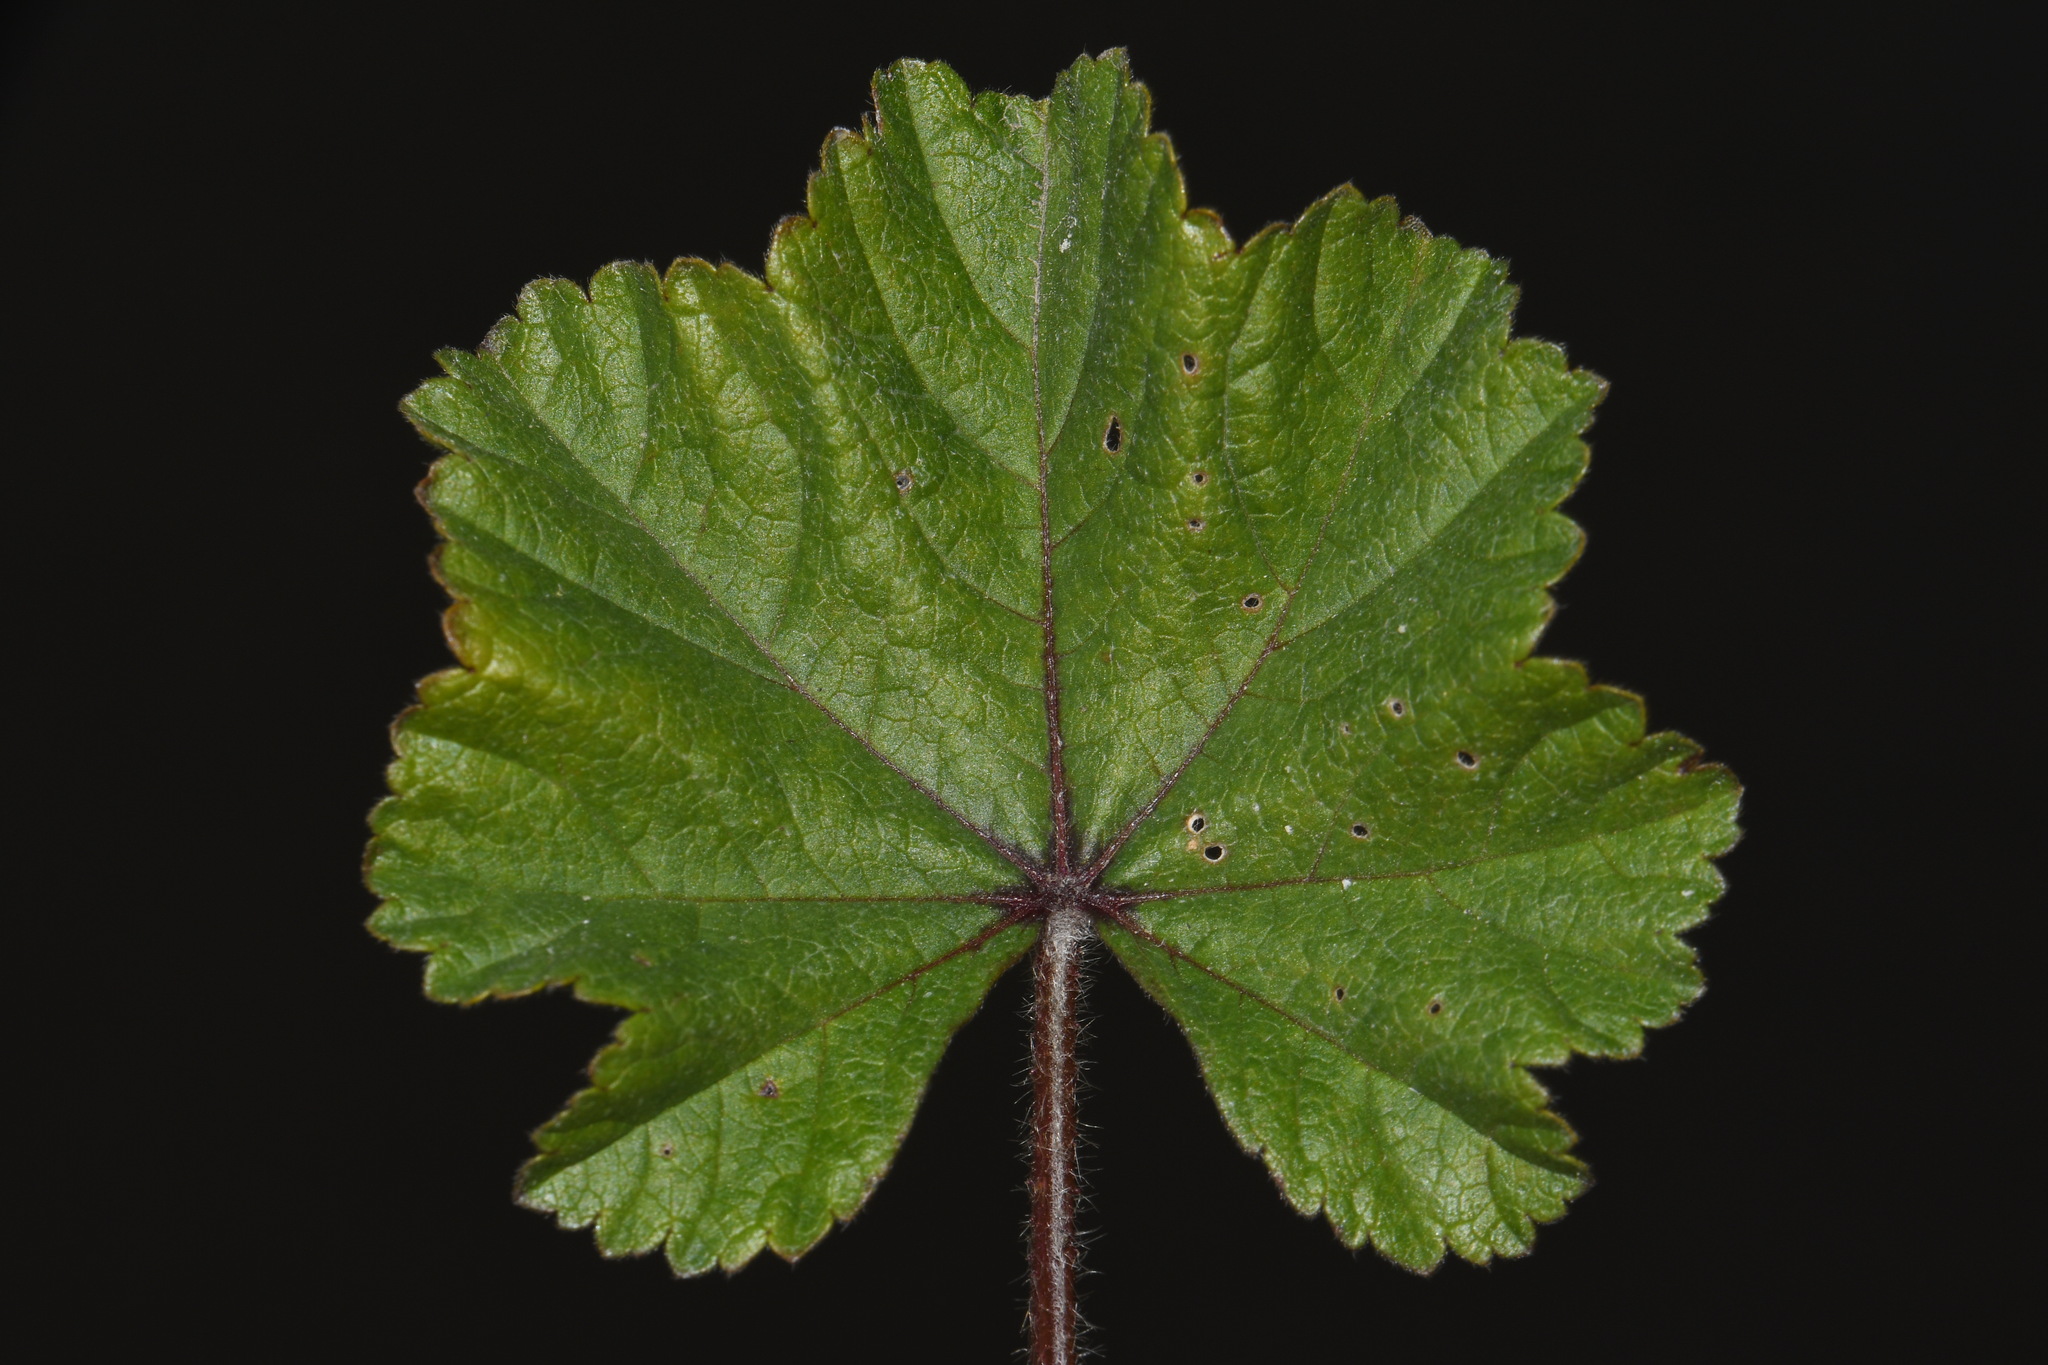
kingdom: Plantae
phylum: Tracheophyta
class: Magnoliopsida
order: Malvales
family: Malvaceae
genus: Malva
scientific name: Malva sylvestris
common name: Common mallow
